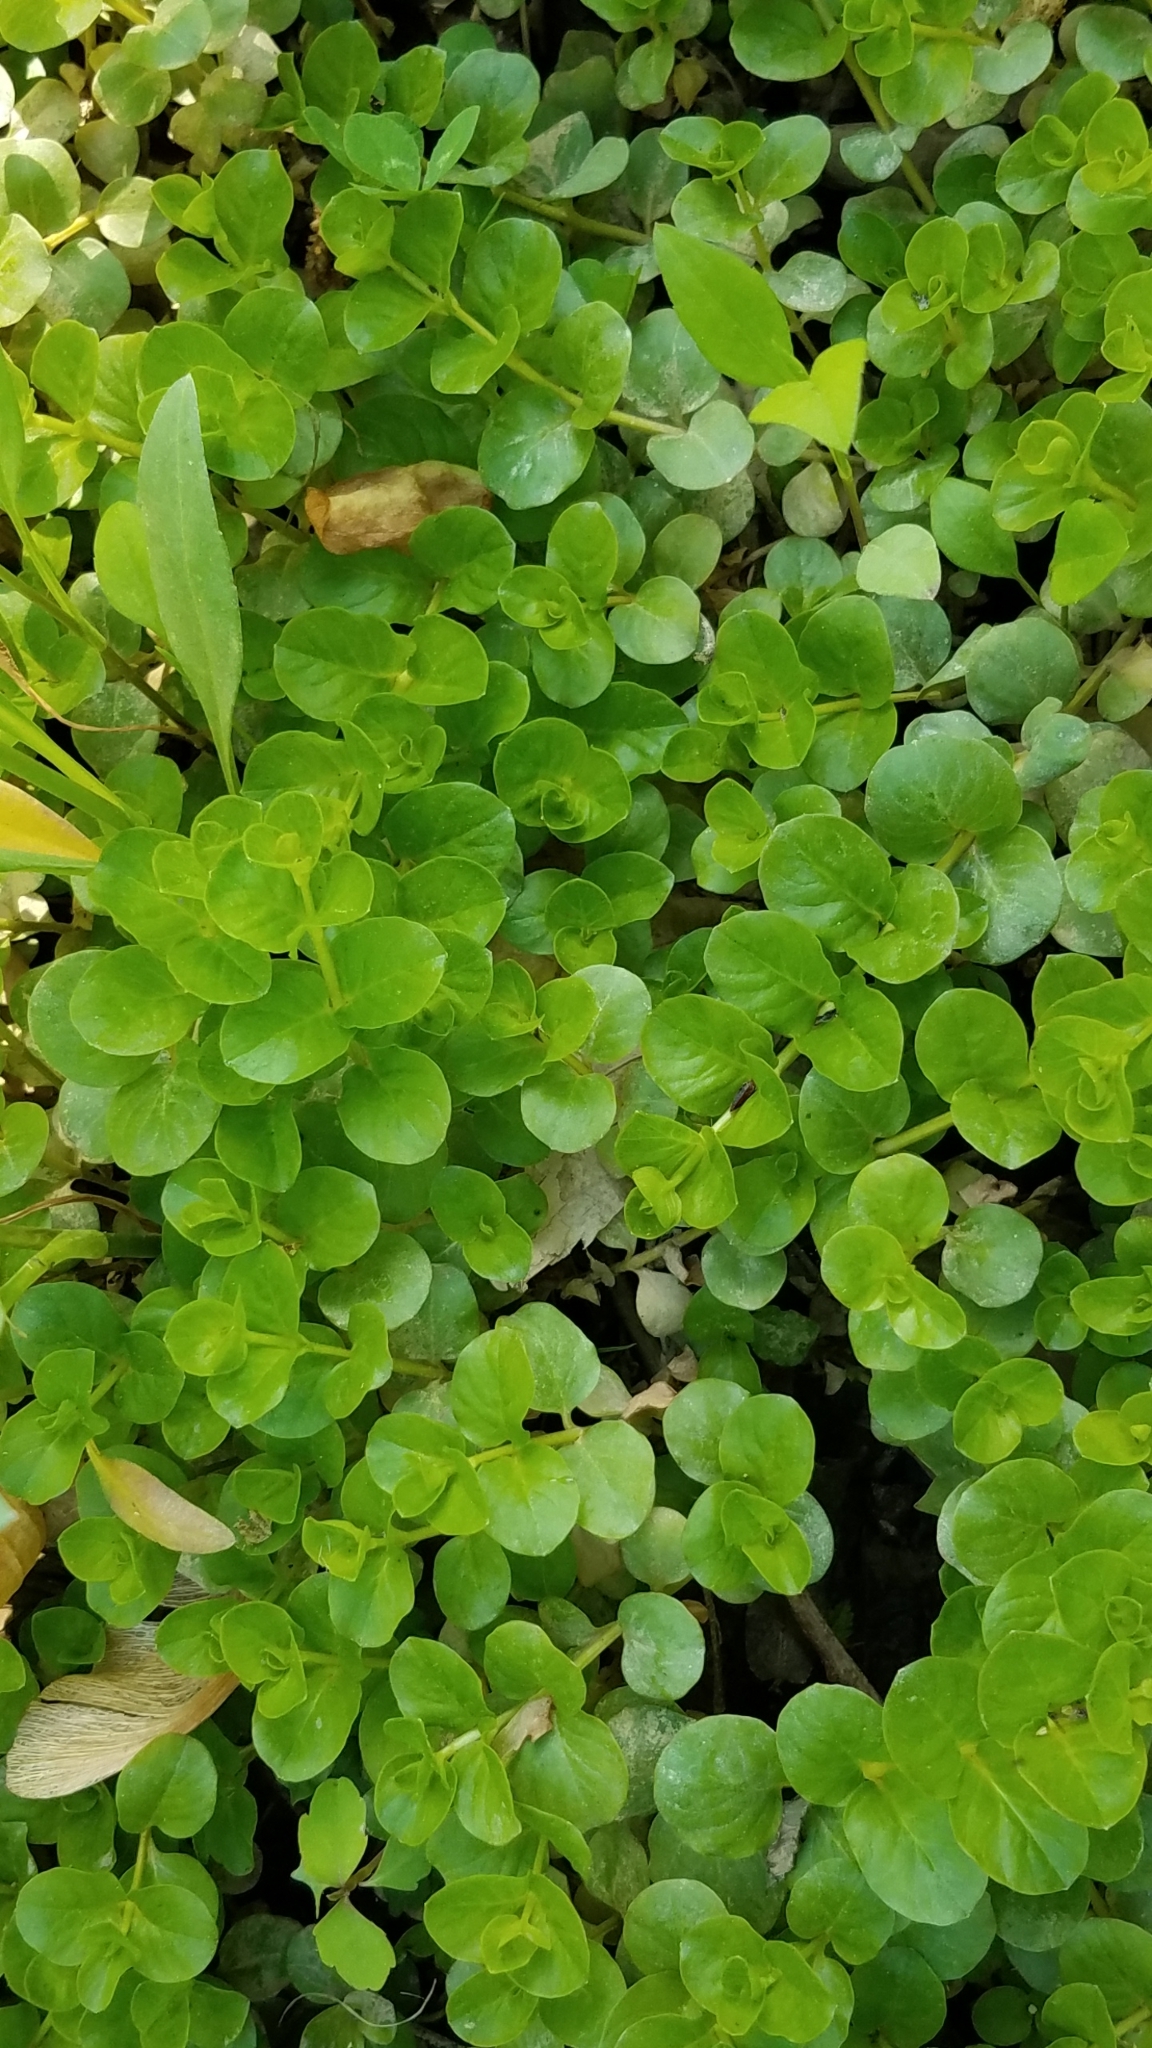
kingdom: Plantae
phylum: Tracheophyta
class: Magnoliopsida
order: Ericales
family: Primulaceae
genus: Lysimachia
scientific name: Lysimachia nummularia
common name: Moneywort
